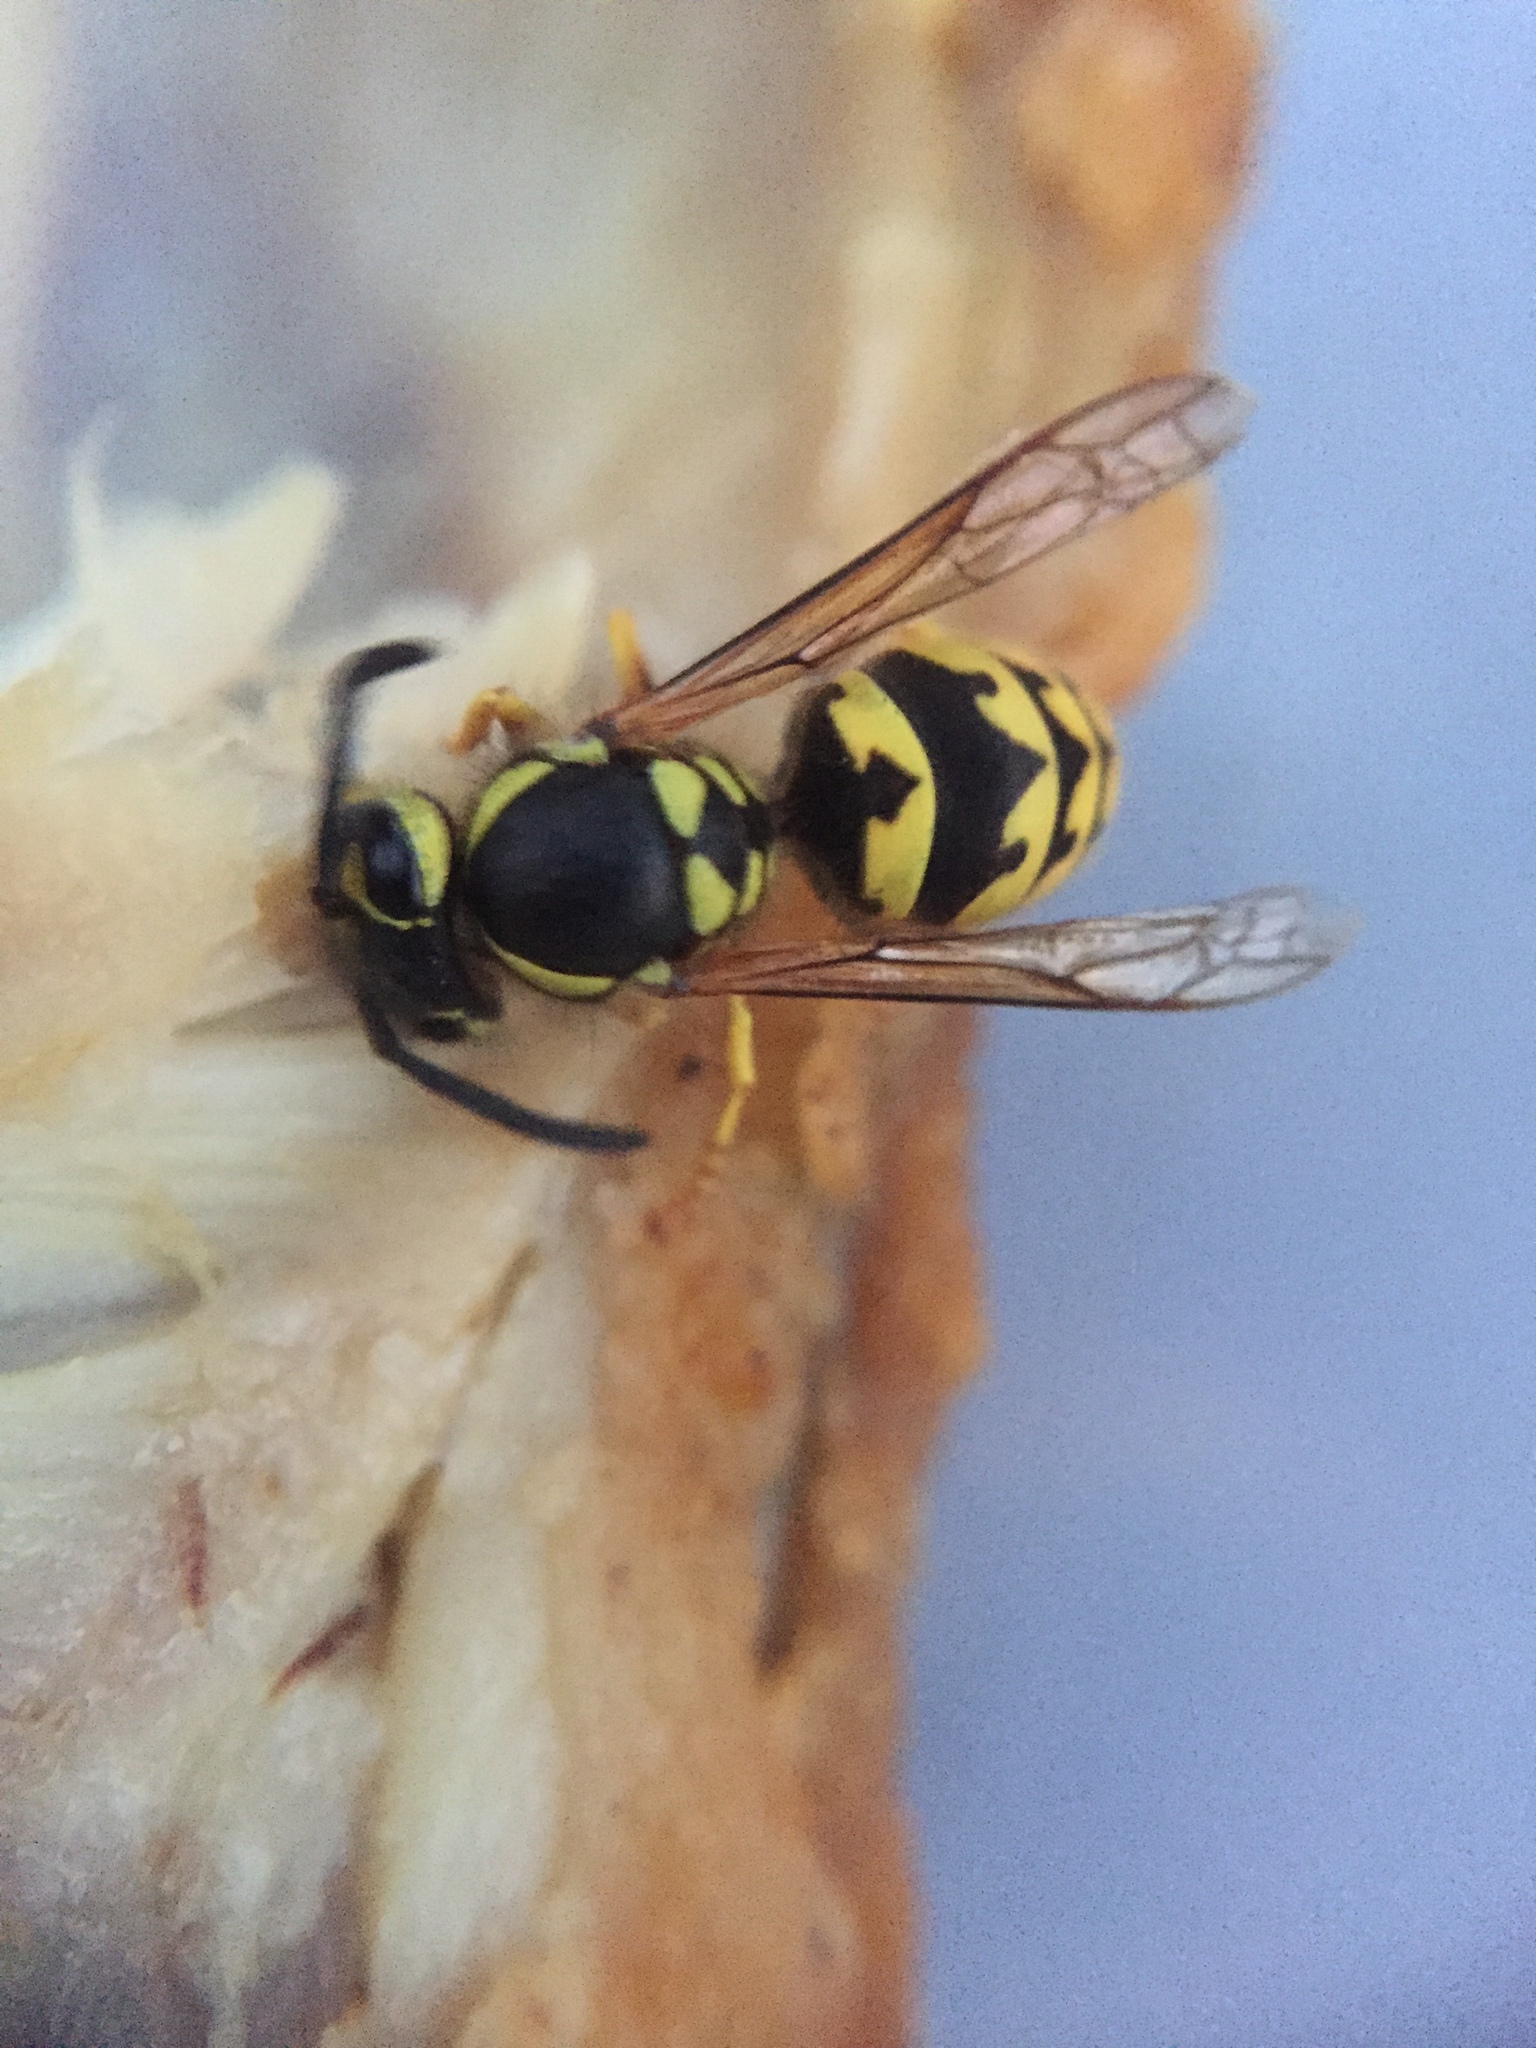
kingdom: Animalia
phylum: Arthropoda
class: Insecta
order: Hymenoptera
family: Vespidae
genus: Vespula
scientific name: Vespula pensylvanica
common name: Western yellowjacket
